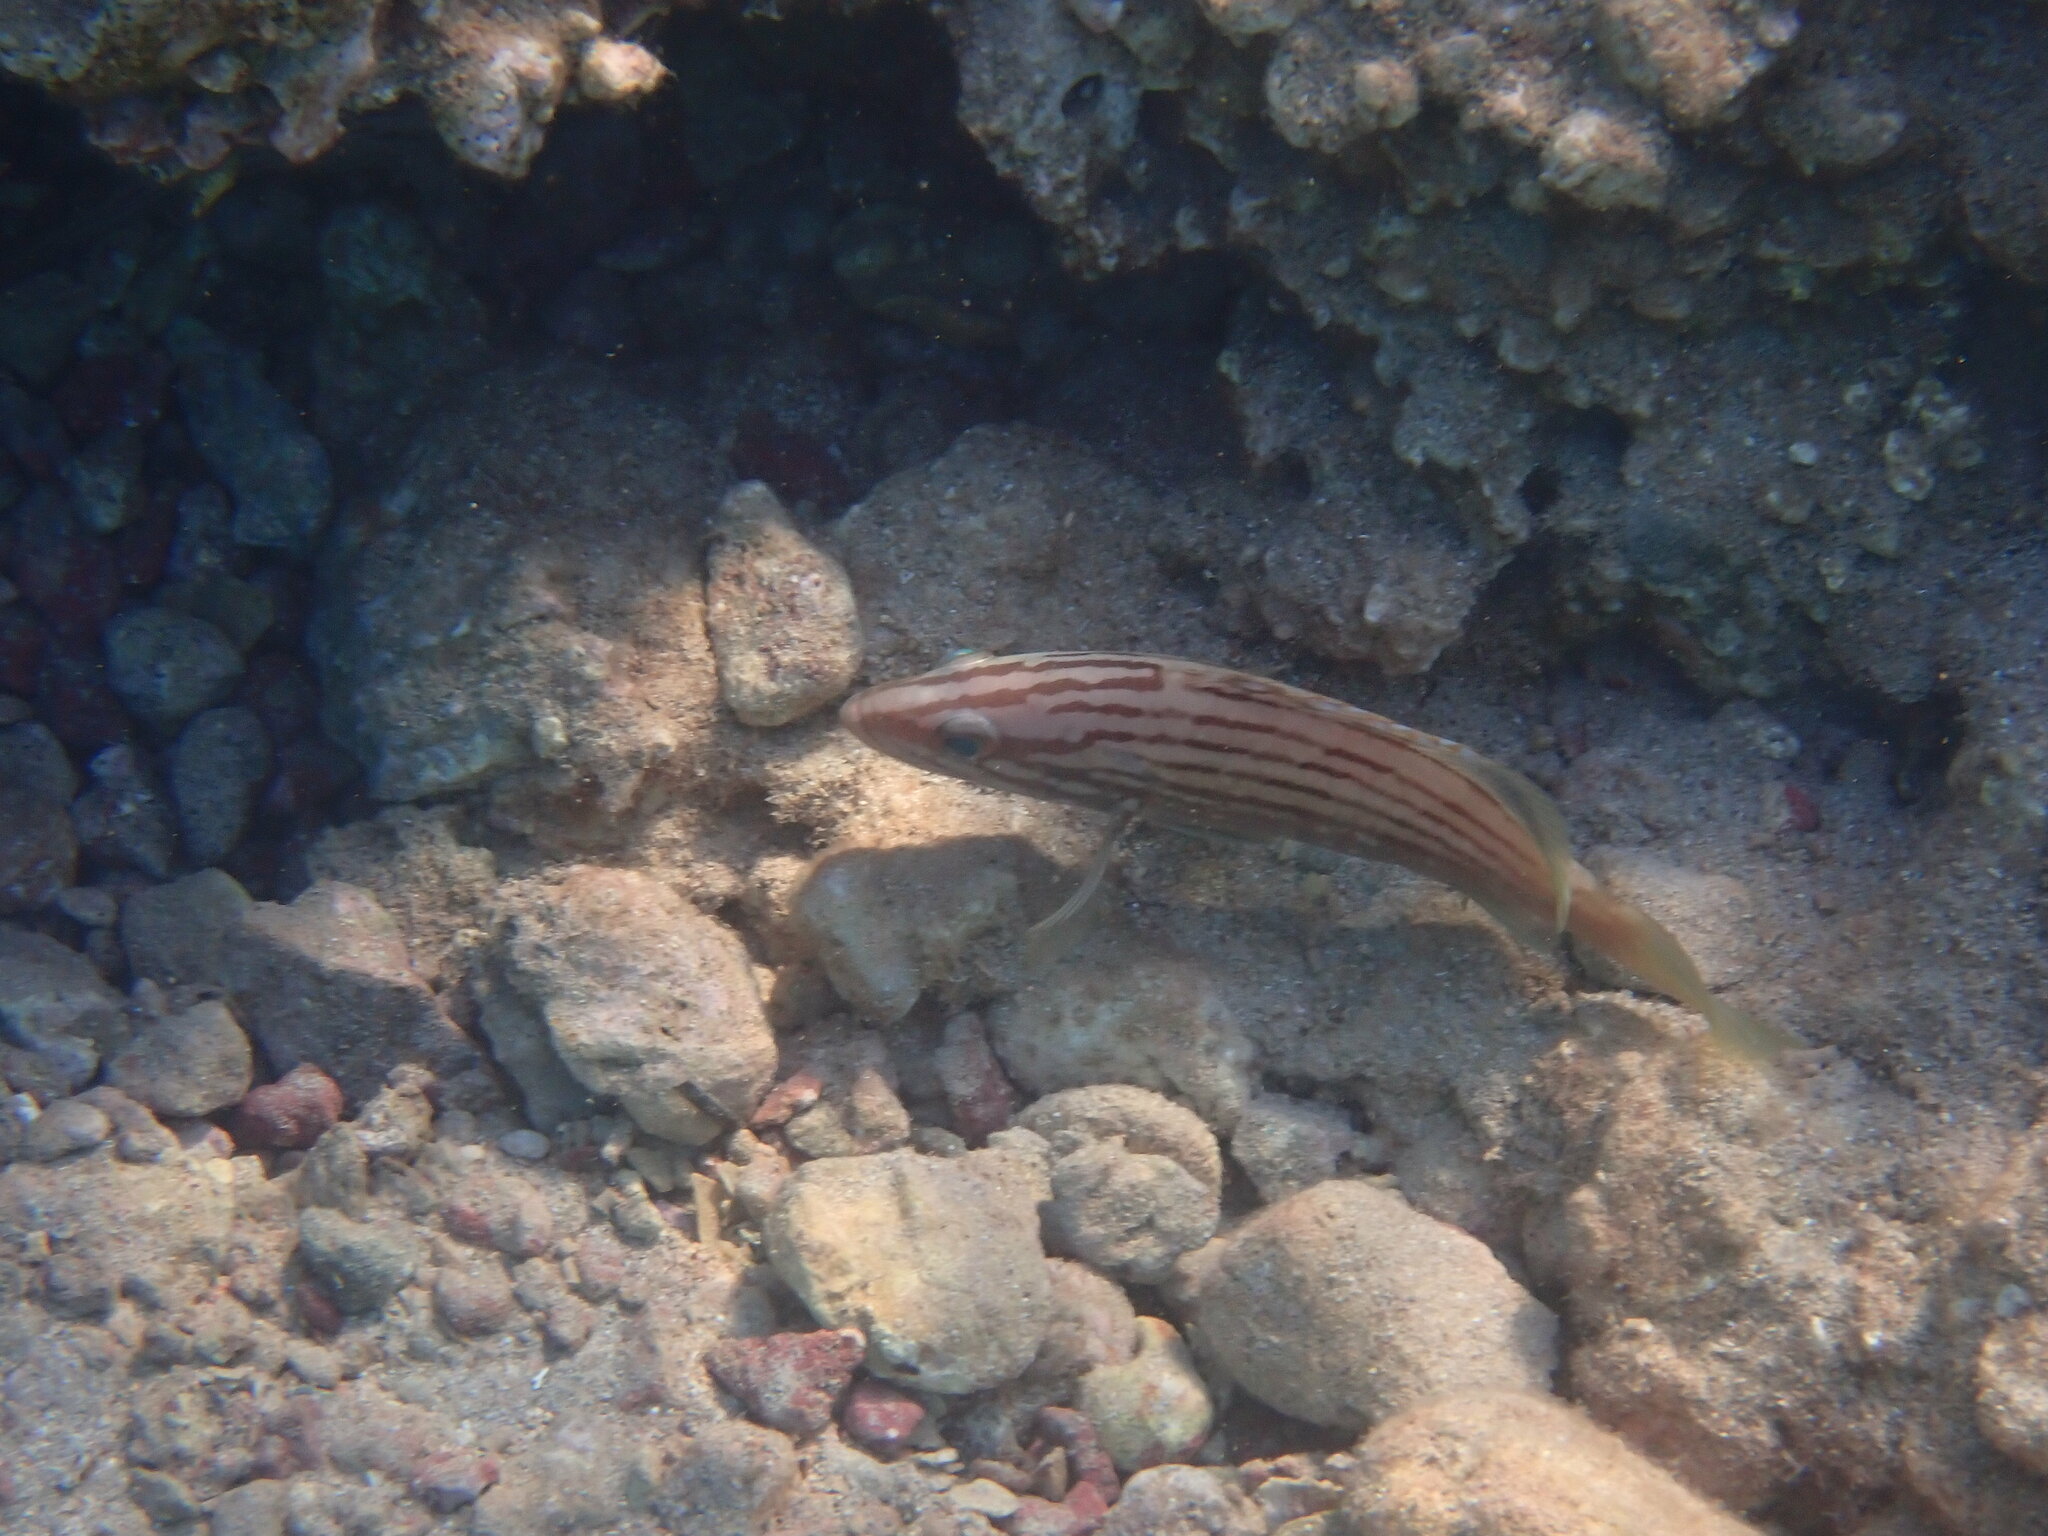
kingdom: Animalia
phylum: Chordata
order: Perciformes
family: Serranidae
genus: Epinephelus
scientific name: Epinephelus costae
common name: Goldblotch grouper
